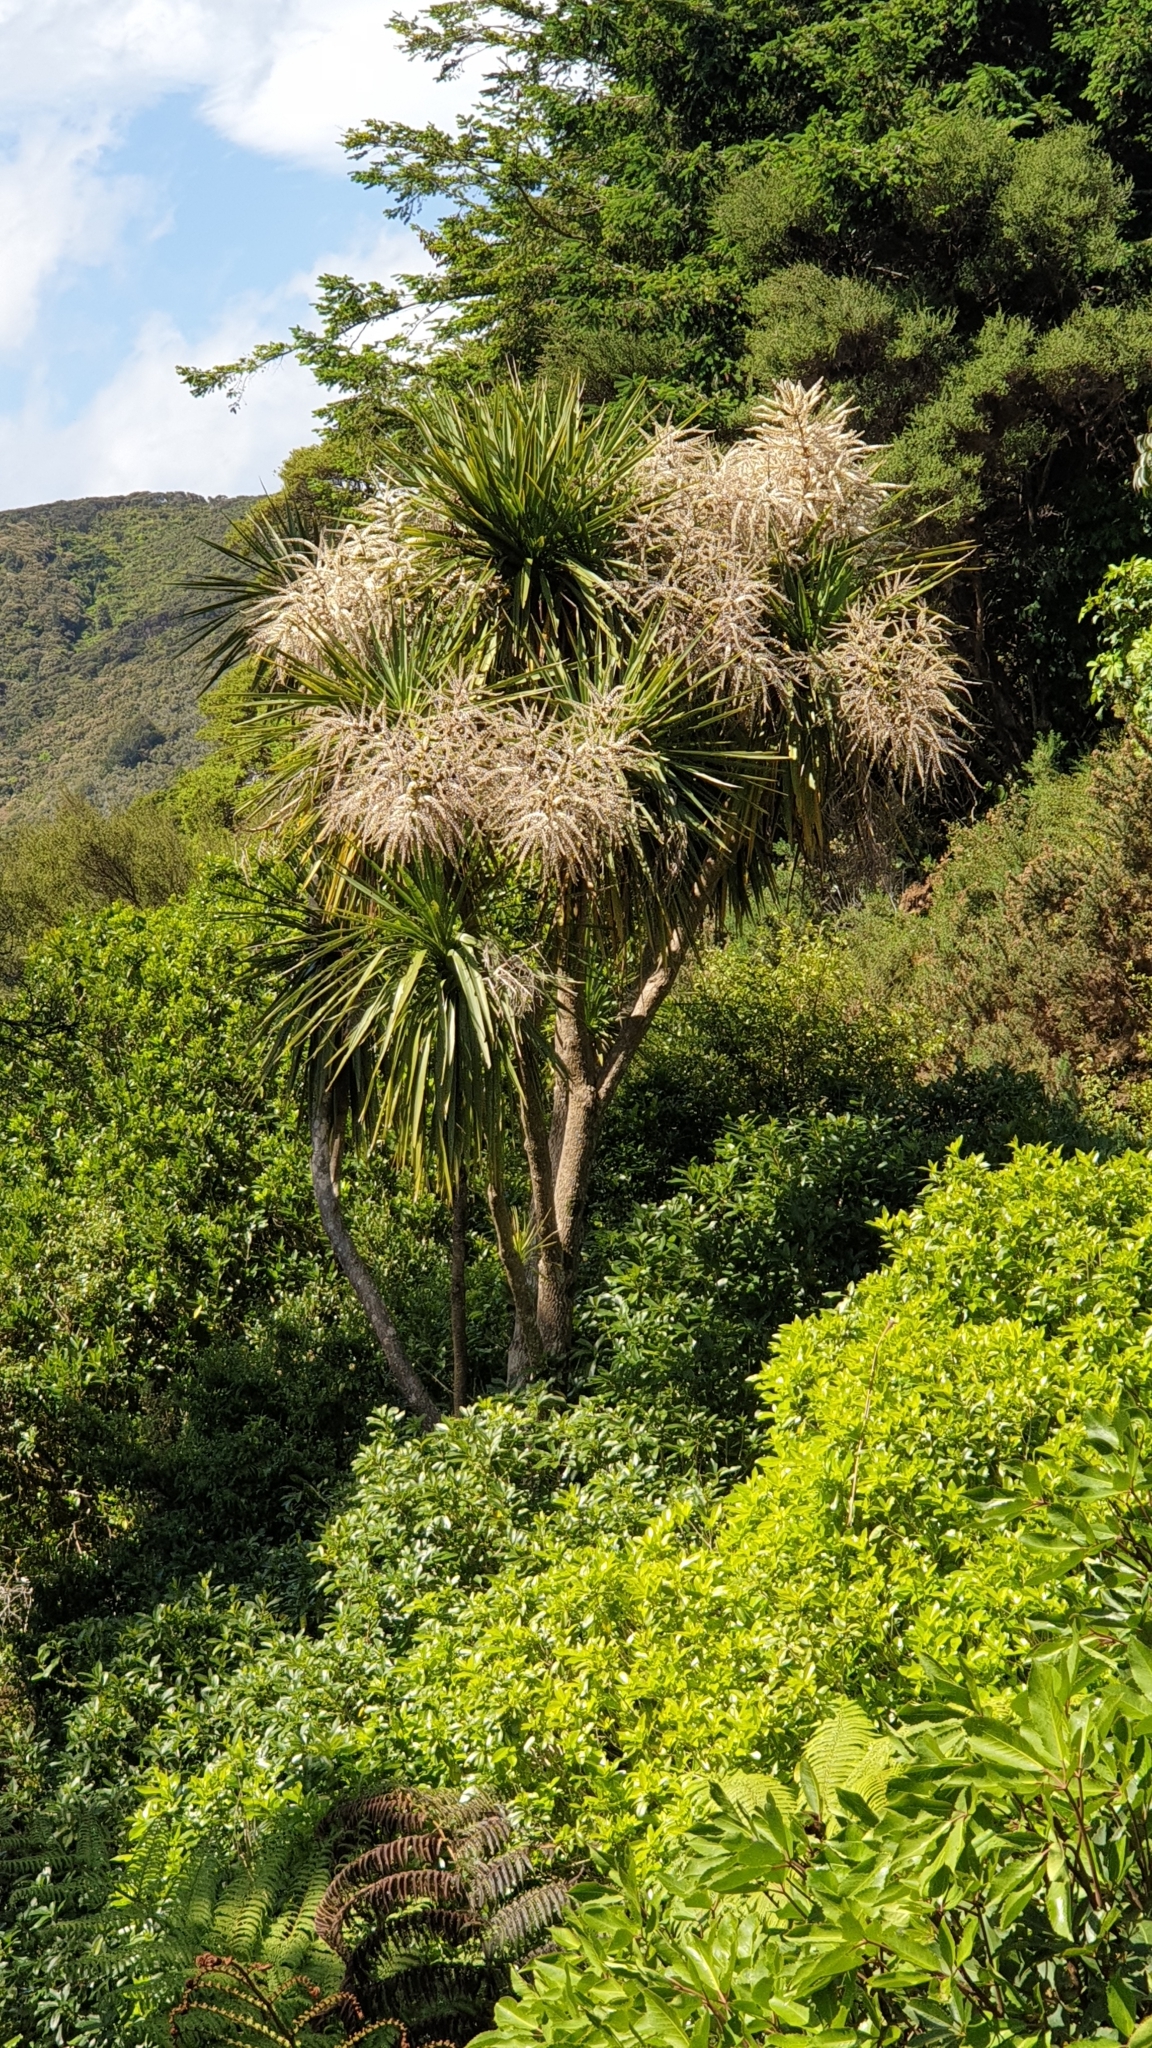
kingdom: Plantae
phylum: Tracheophyta
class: Liliopsida
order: Asparagales
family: Asparagaceae
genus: Cordyline
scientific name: Cordyline australis
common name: Cabbage-palm
